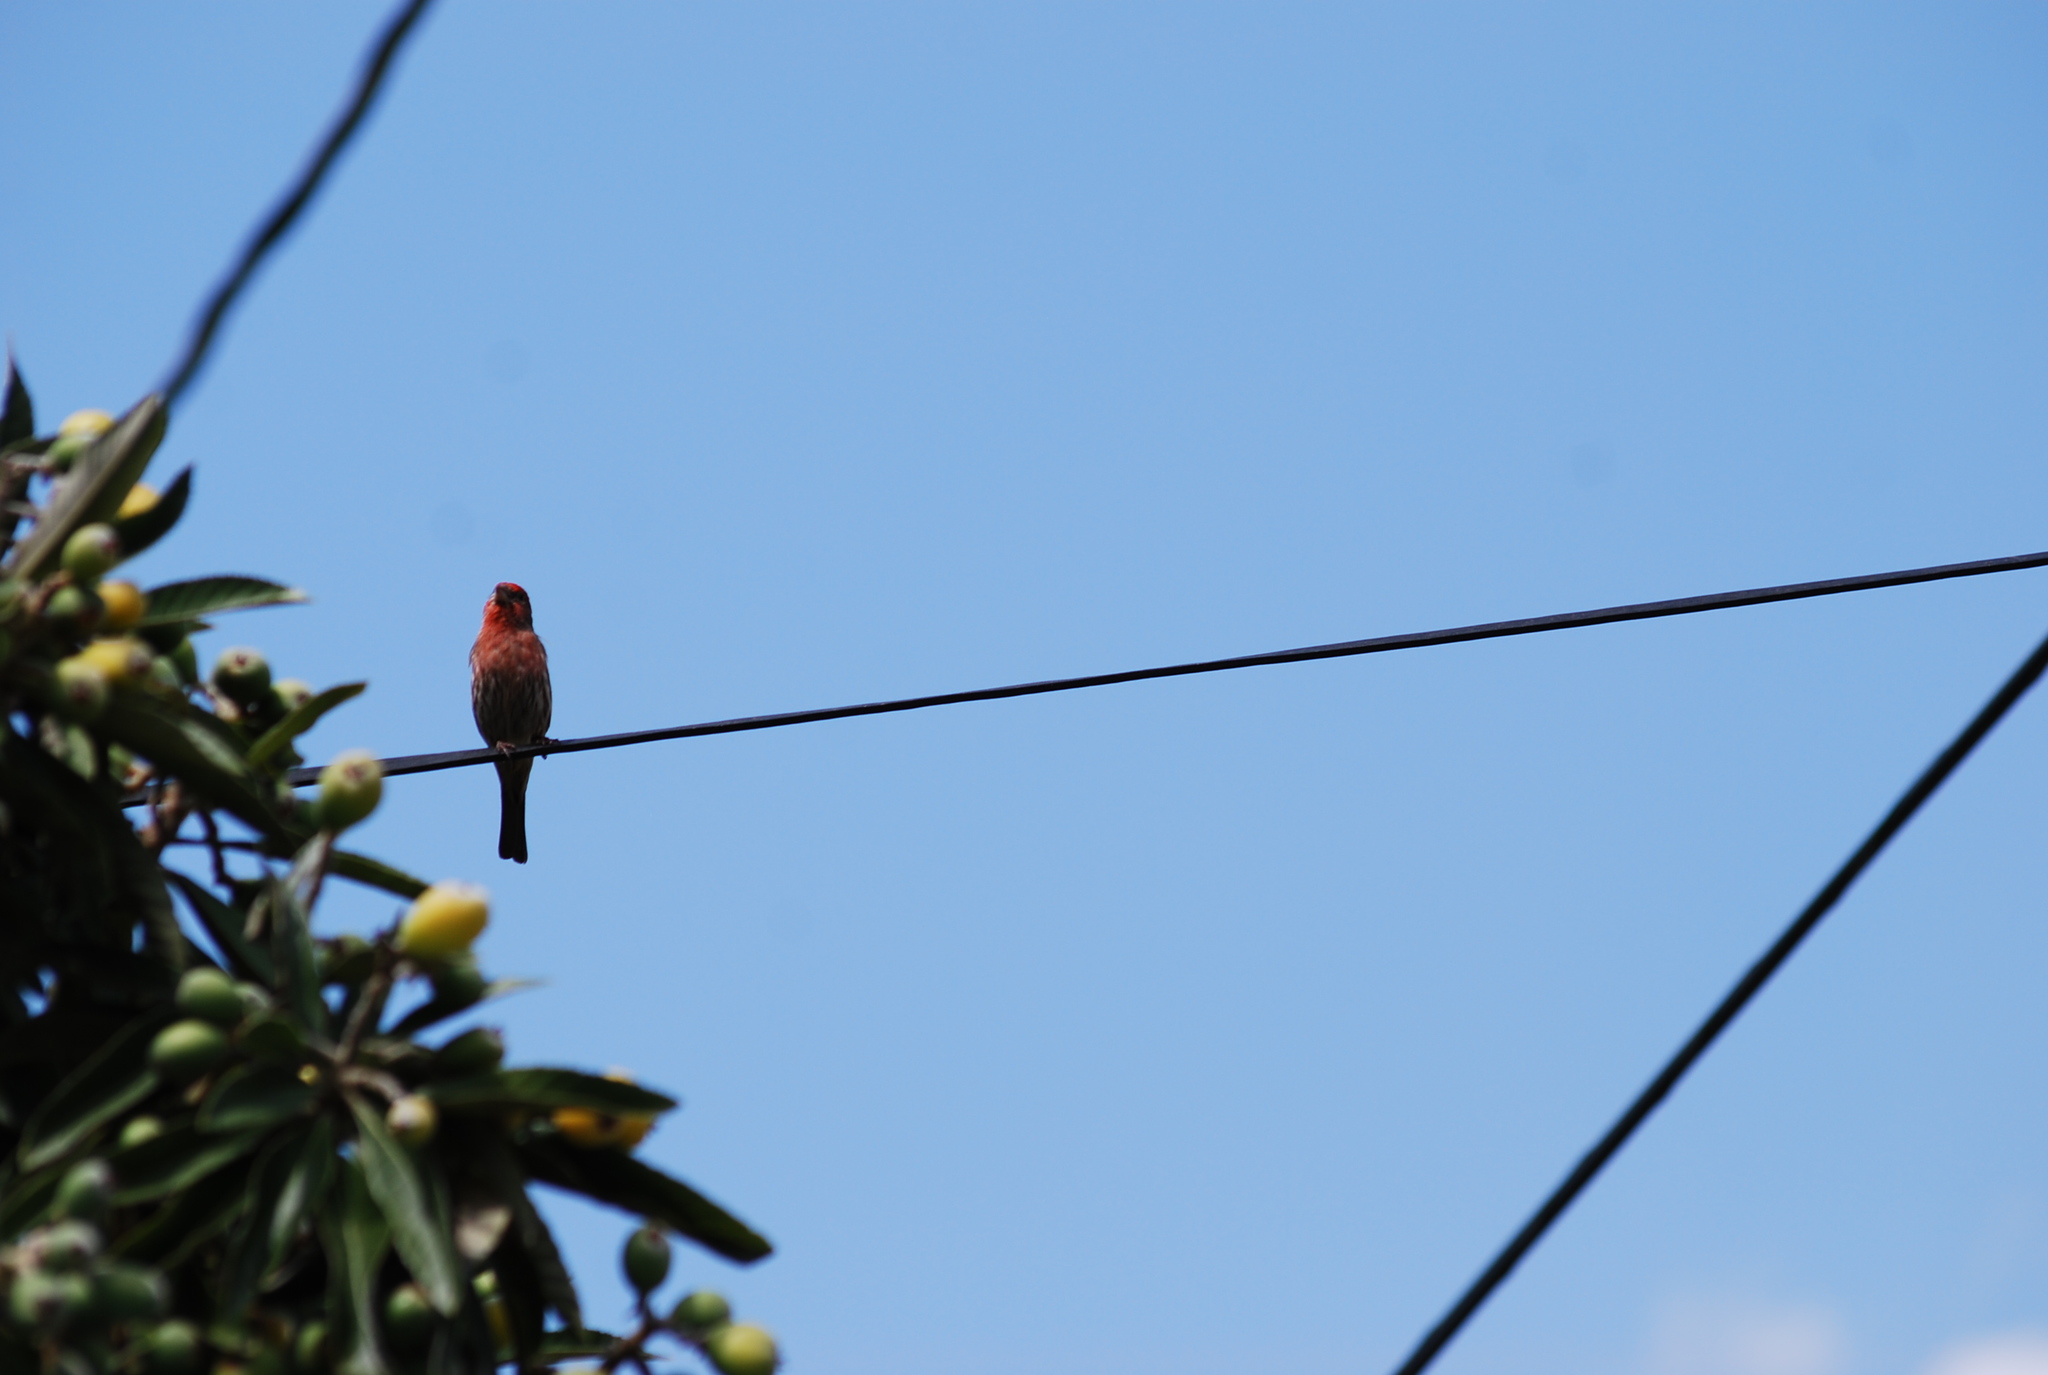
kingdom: Animalia
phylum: Chordata
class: Aves
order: Passeriformes
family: Fringillidae
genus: Haemorhous
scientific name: Haemorhous mexicanus
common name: House finch
